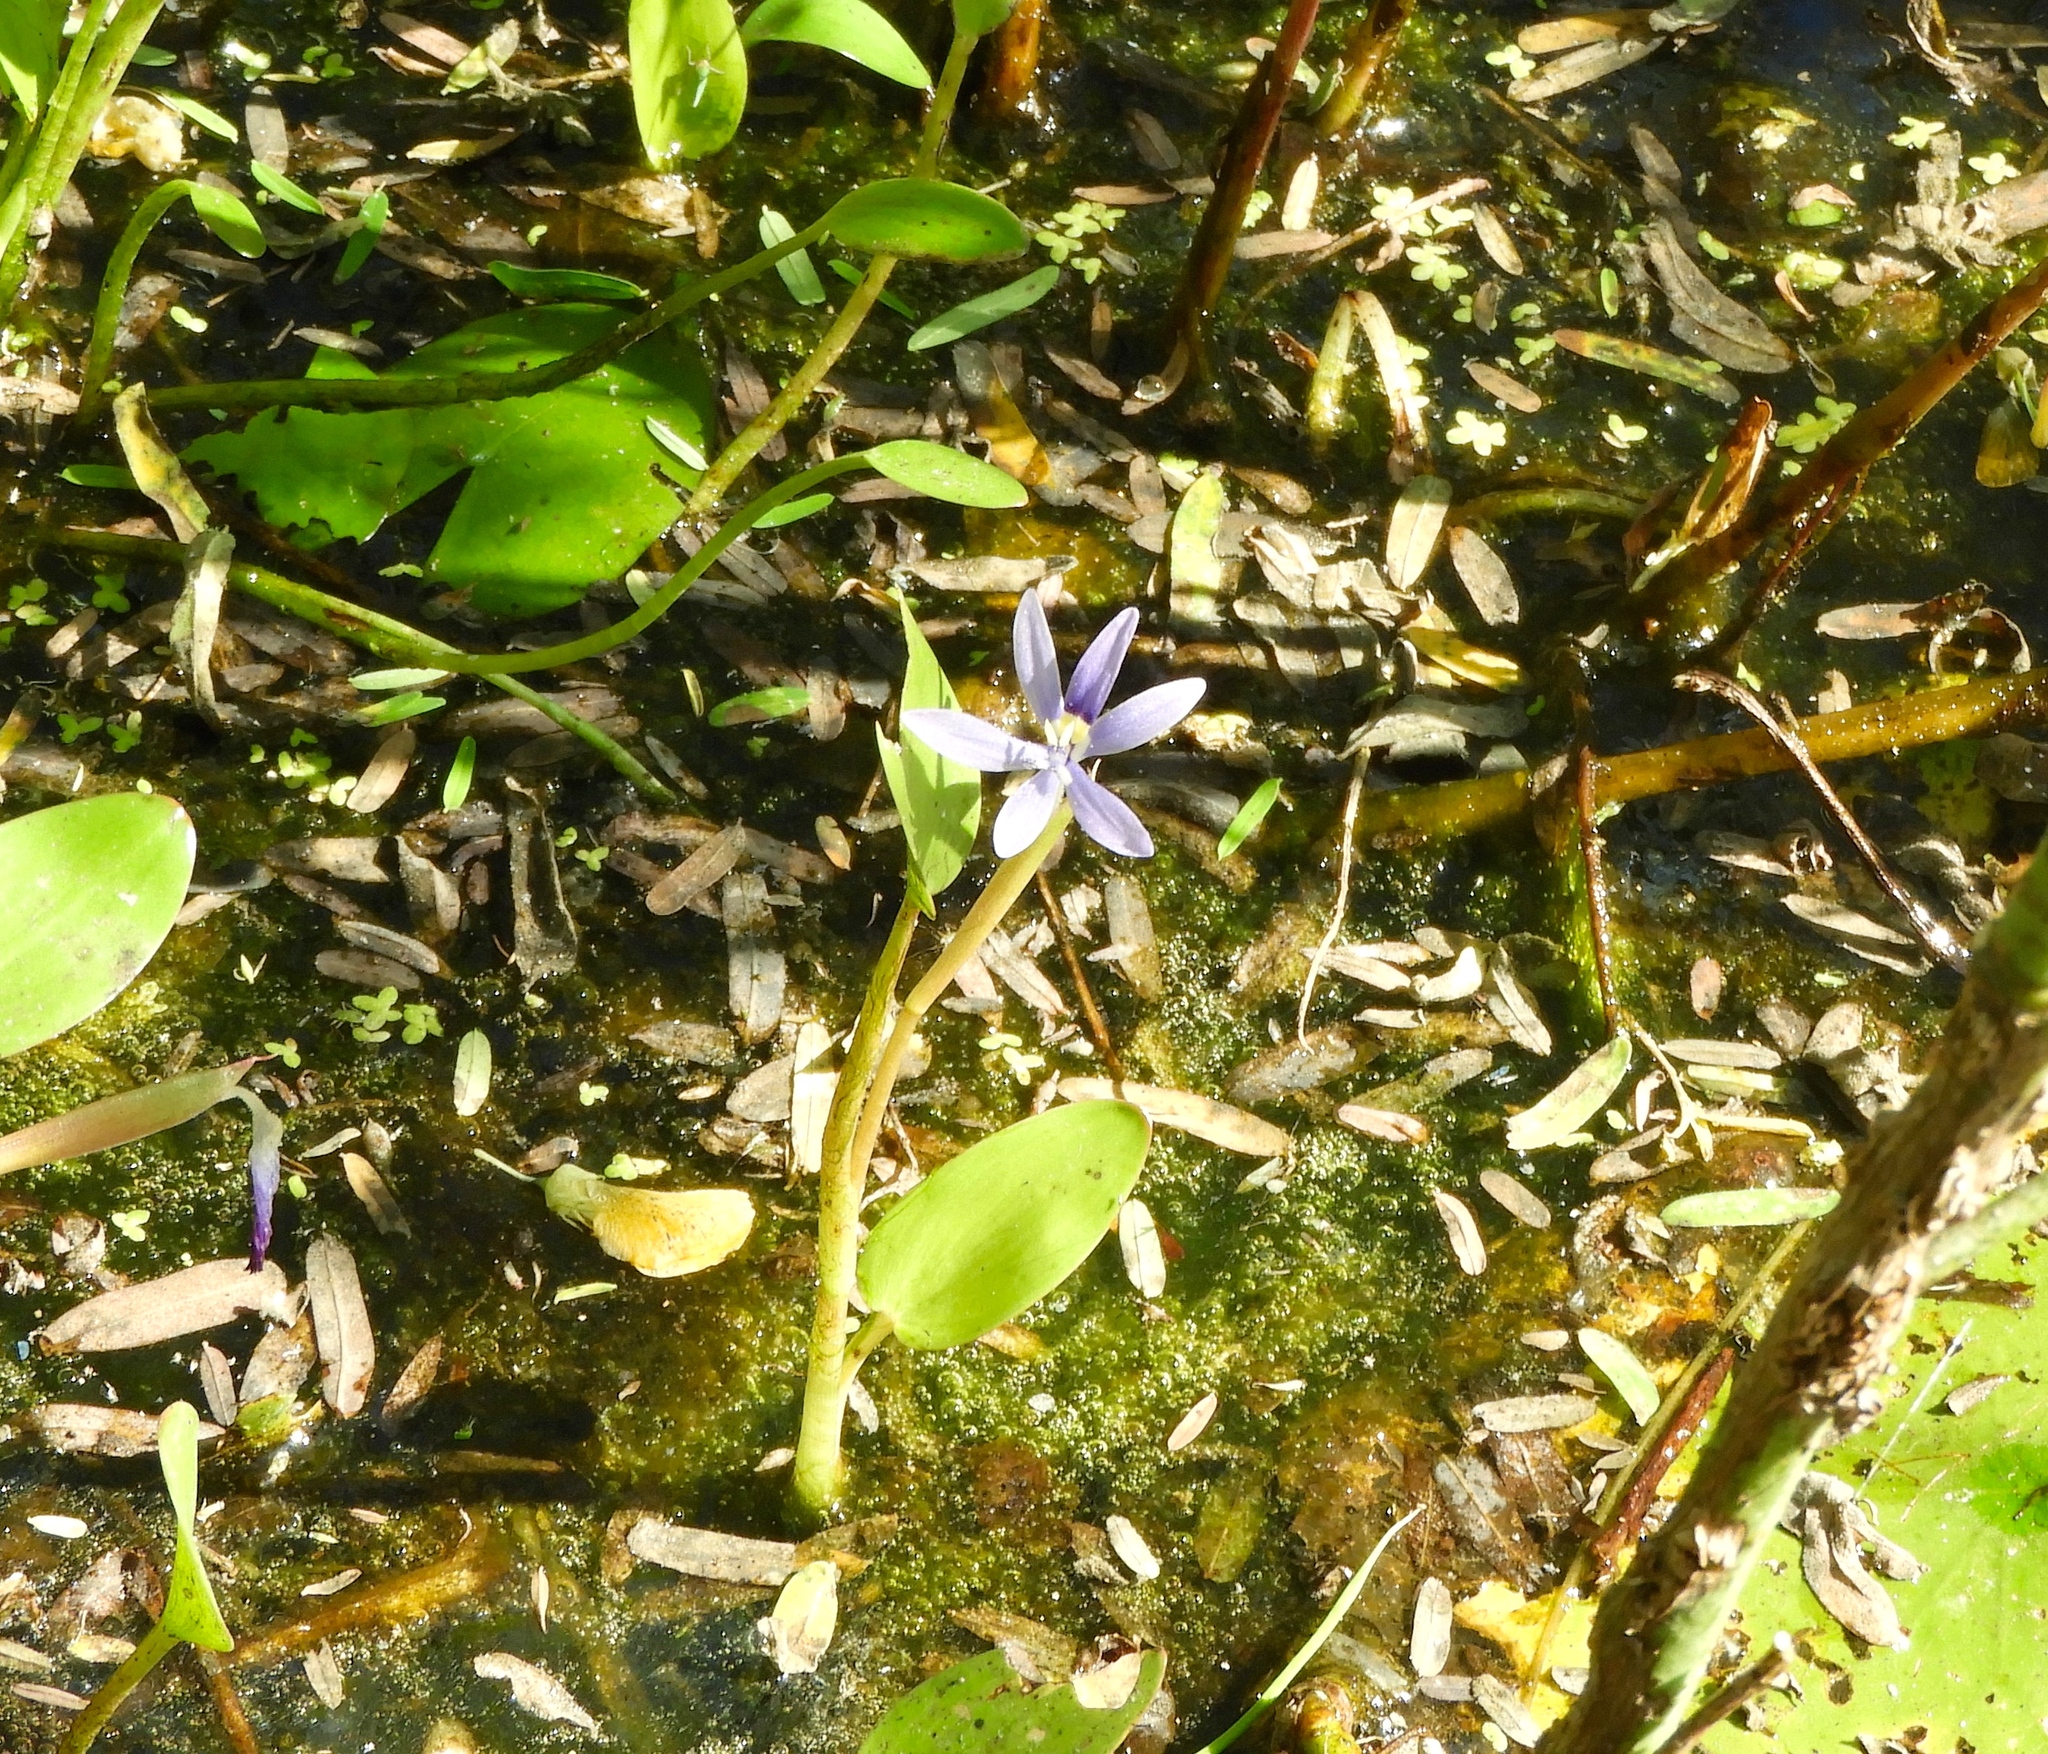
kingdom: Plantae
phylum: Tracheophyta
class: Liliopsida
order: Commelinales
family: Pontederiaceae
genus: Heteranthera
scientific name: Heteranthera limosa
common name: Blue mud-plantain
